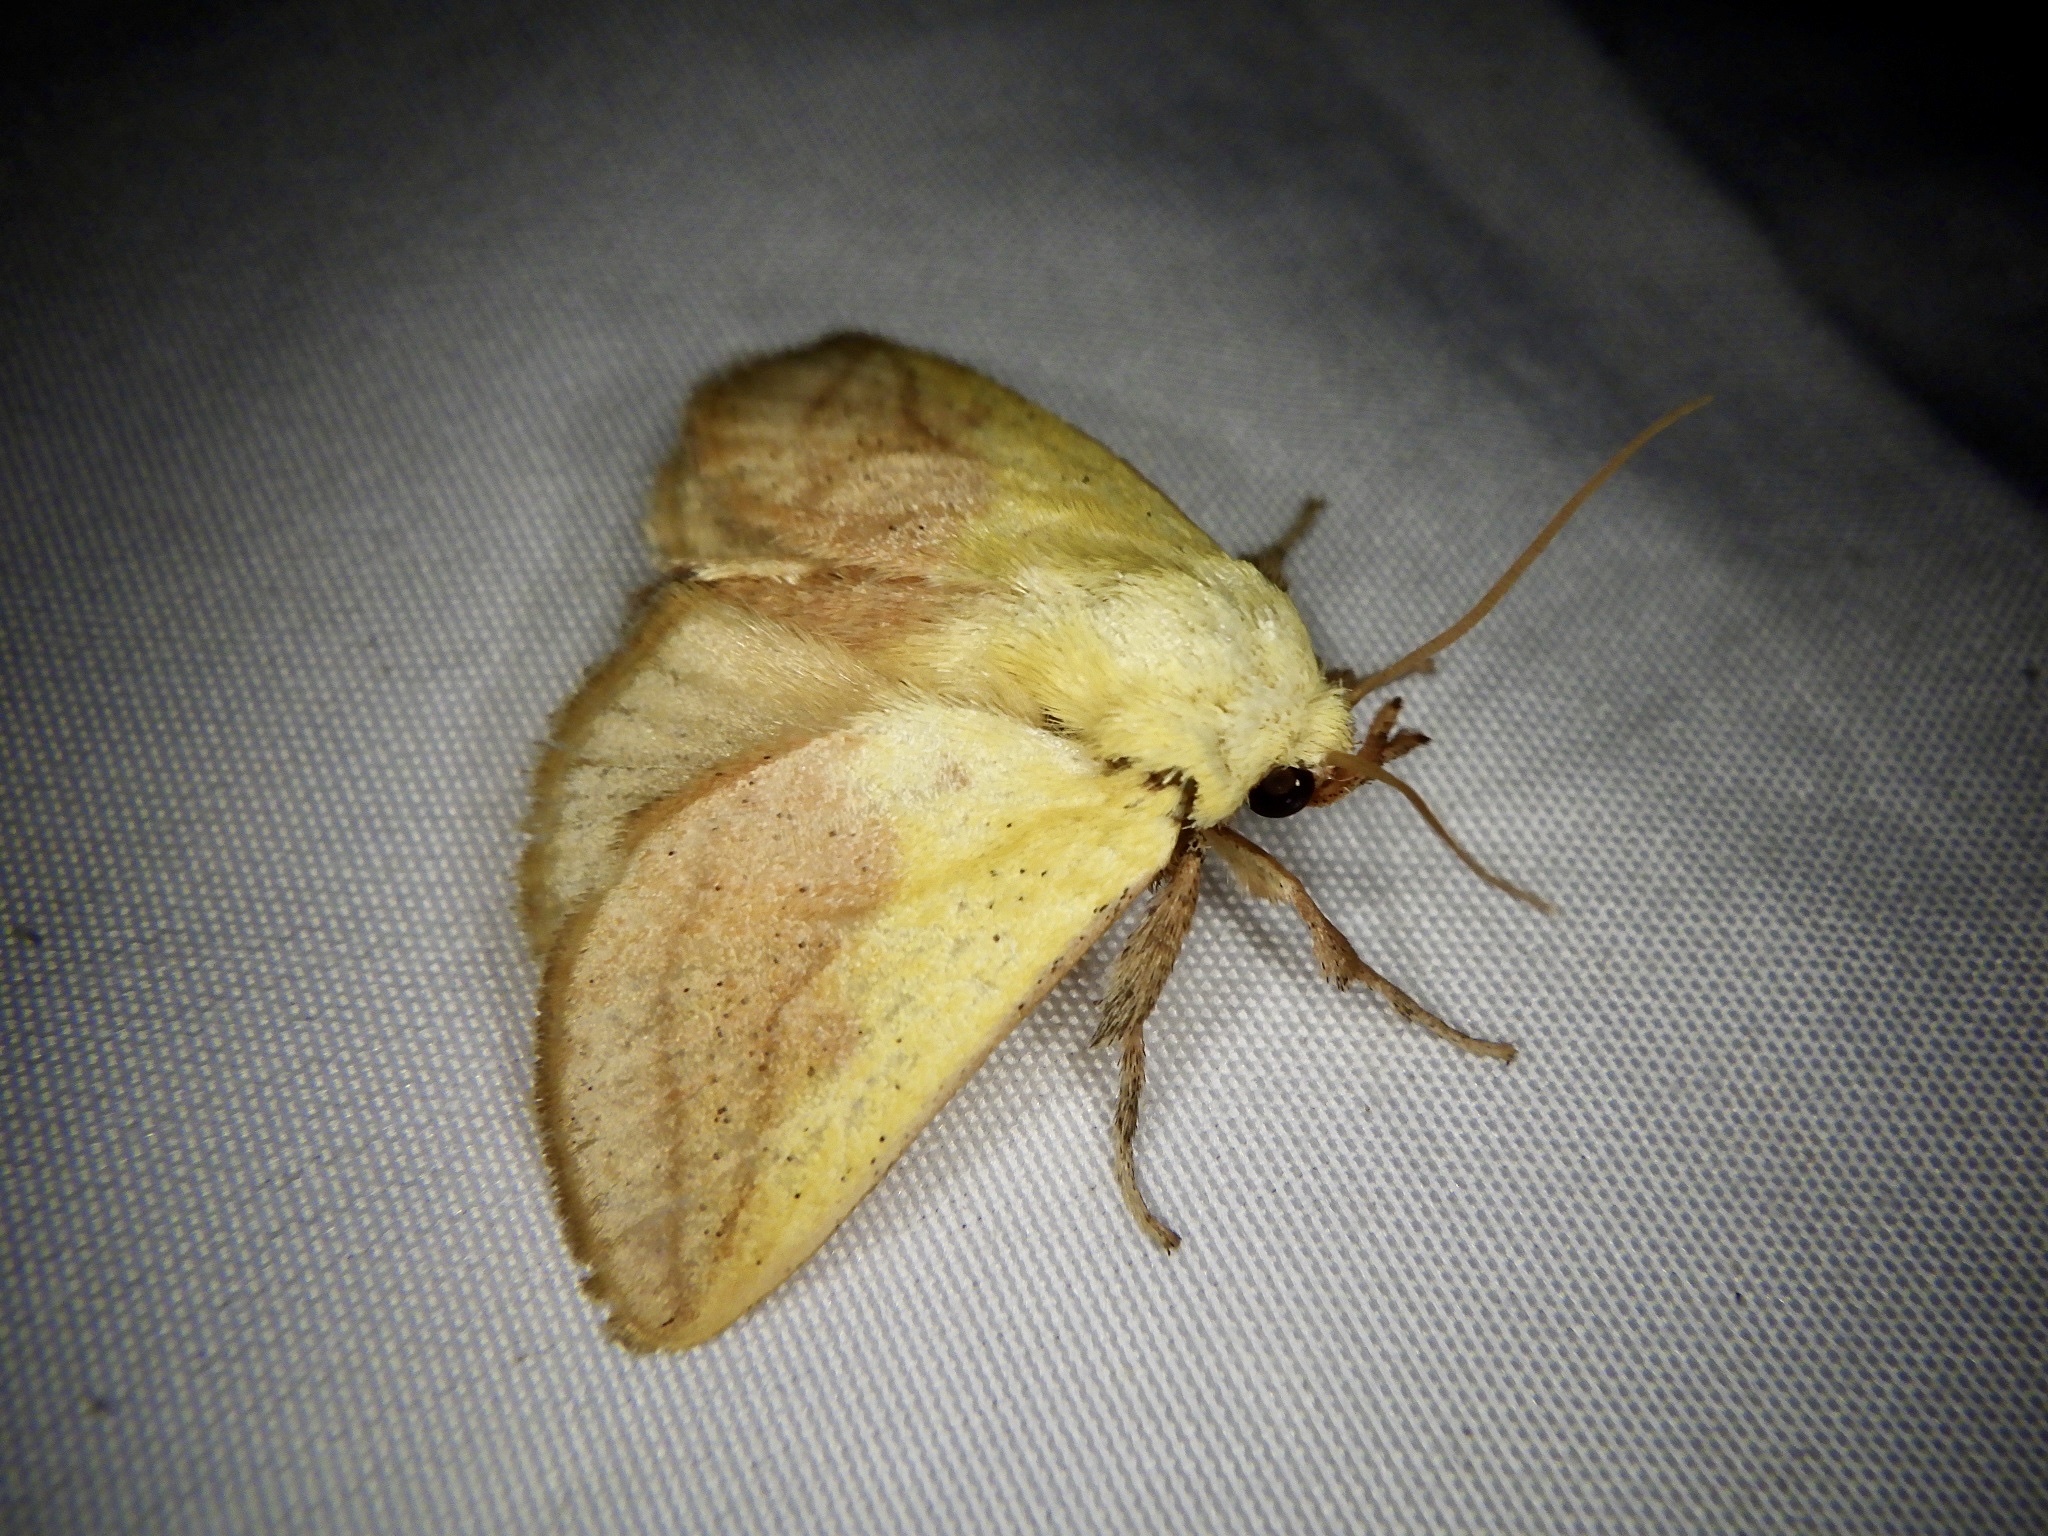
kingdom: Animalia
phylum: Arthropoda
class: Insecta
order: Lepidoptera
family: Limacodidae
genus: Monema
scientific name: Monema flavescens
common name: Oriental moth
